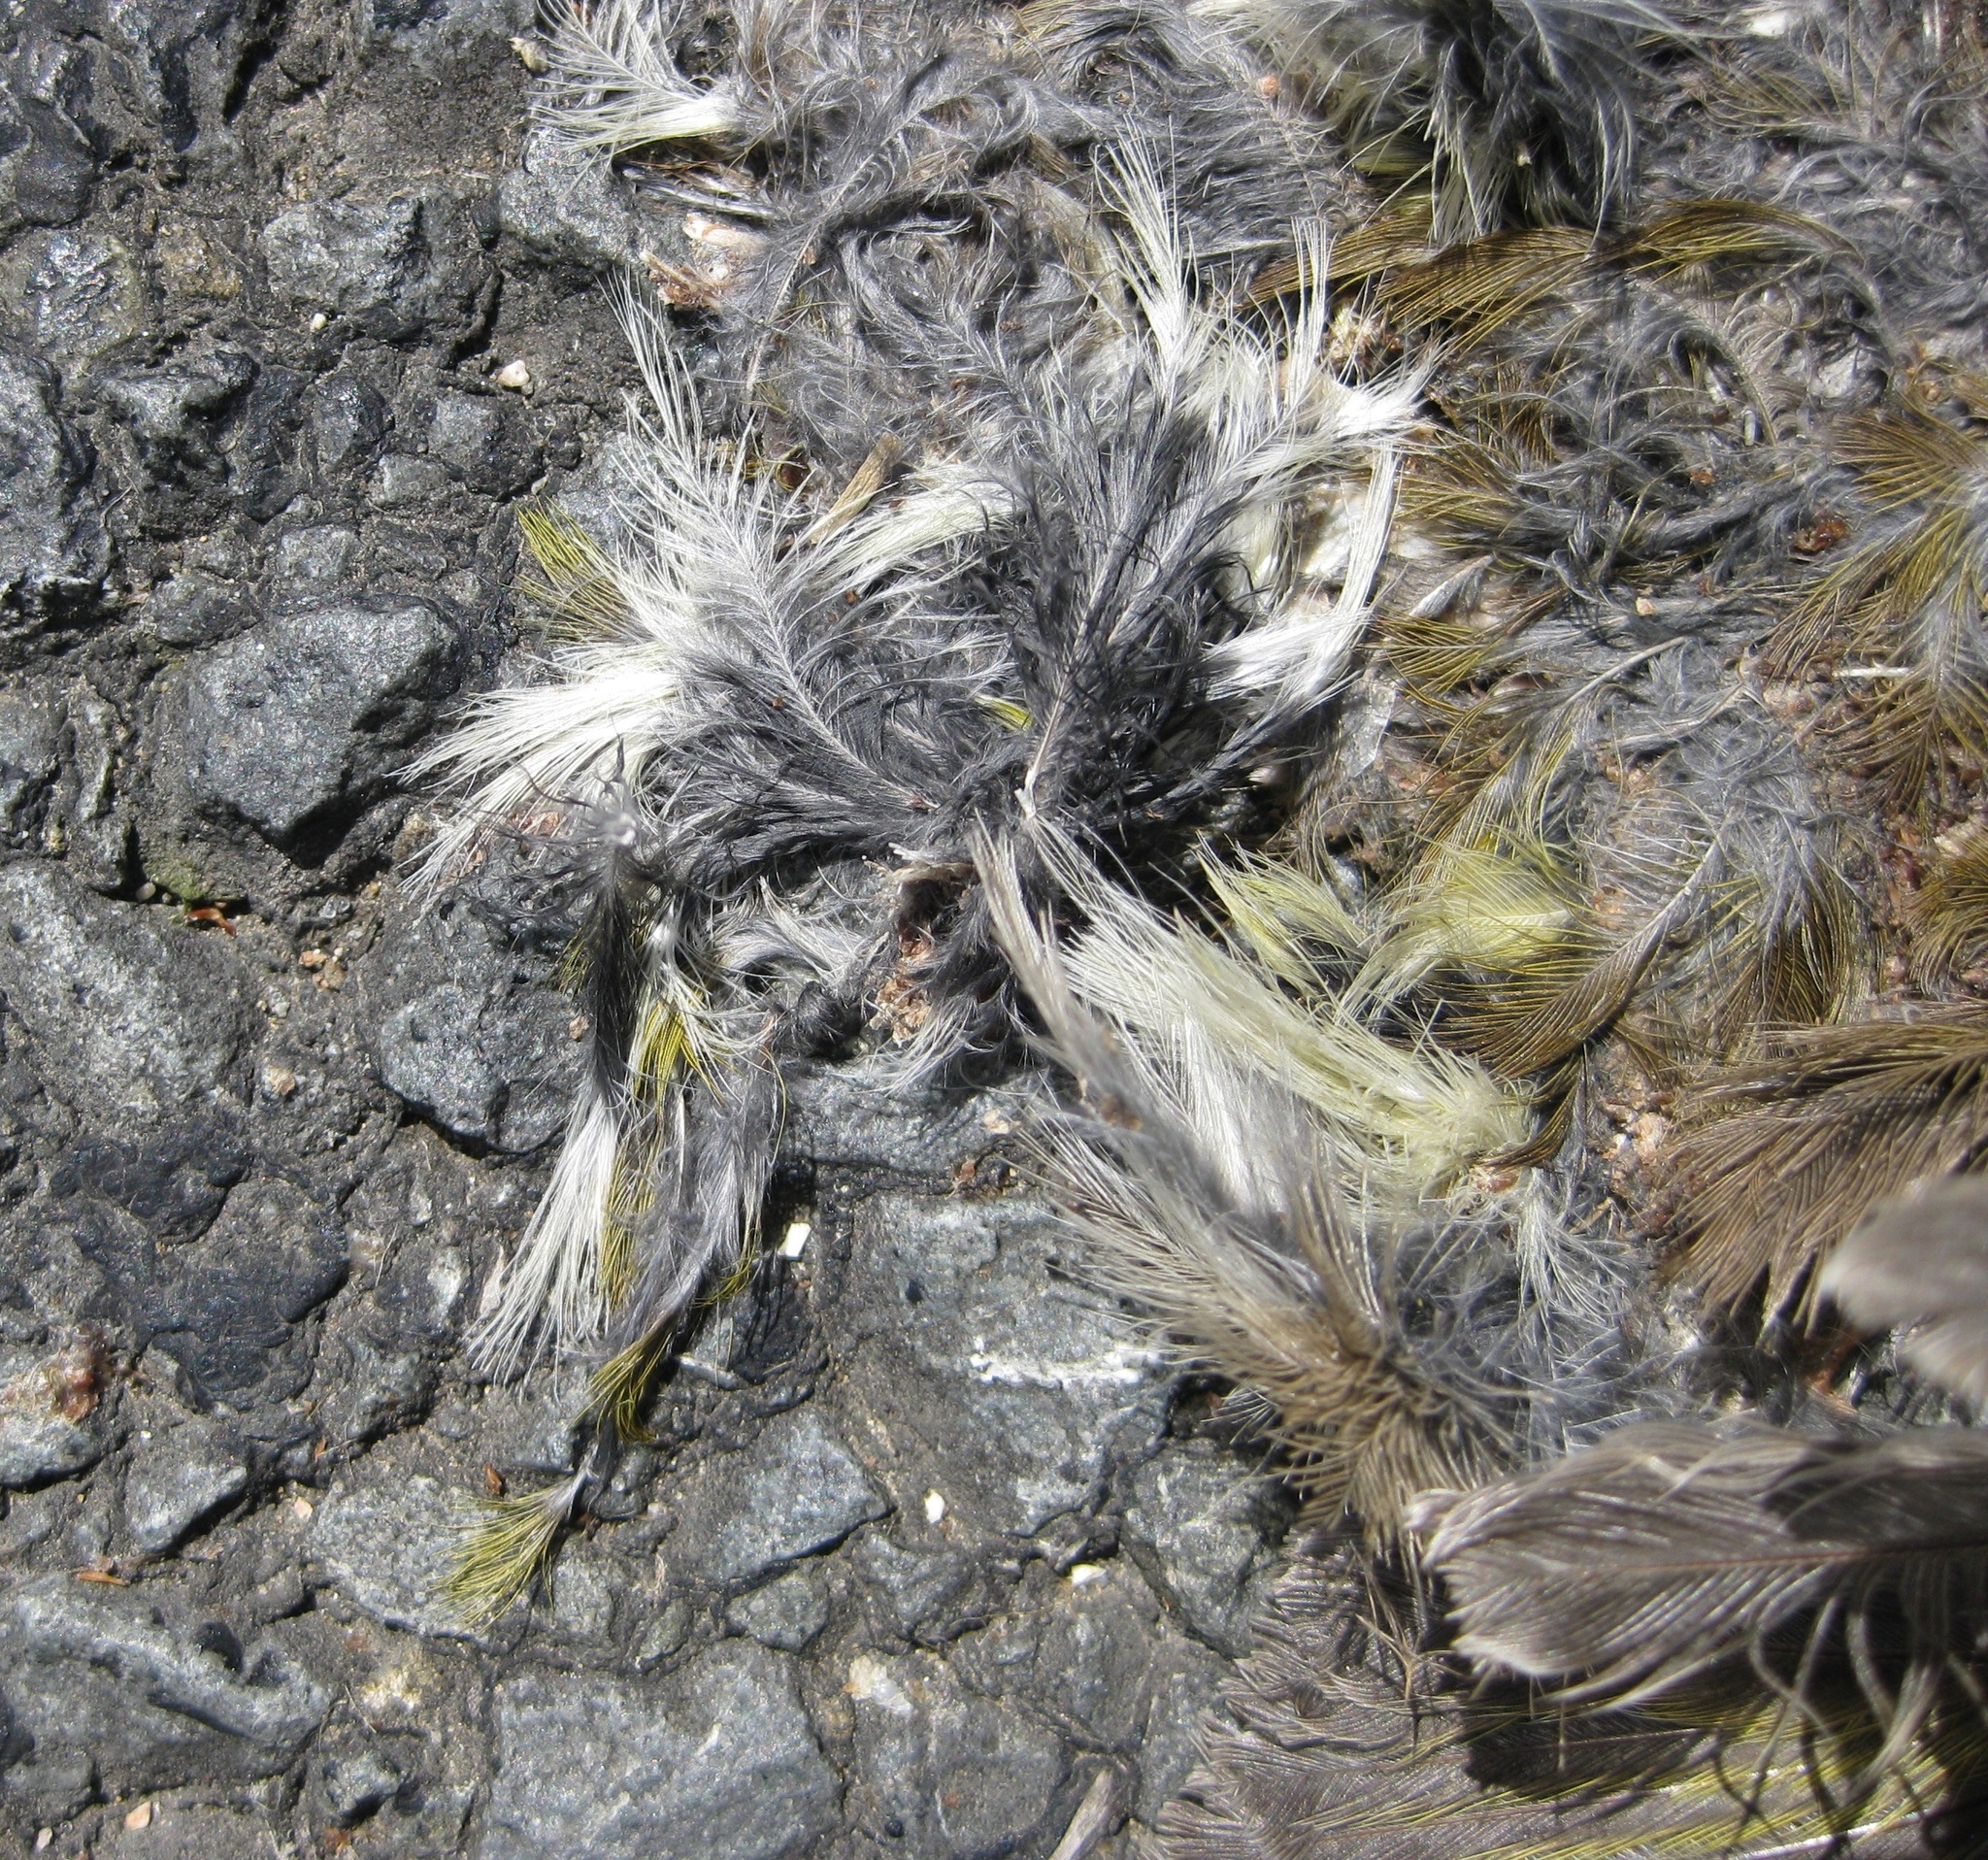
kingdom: Plantae
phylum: Tracheophyta
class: Liliopsida
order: Poales
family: Poaceae
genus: Chloris
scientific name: Chloris chloris
